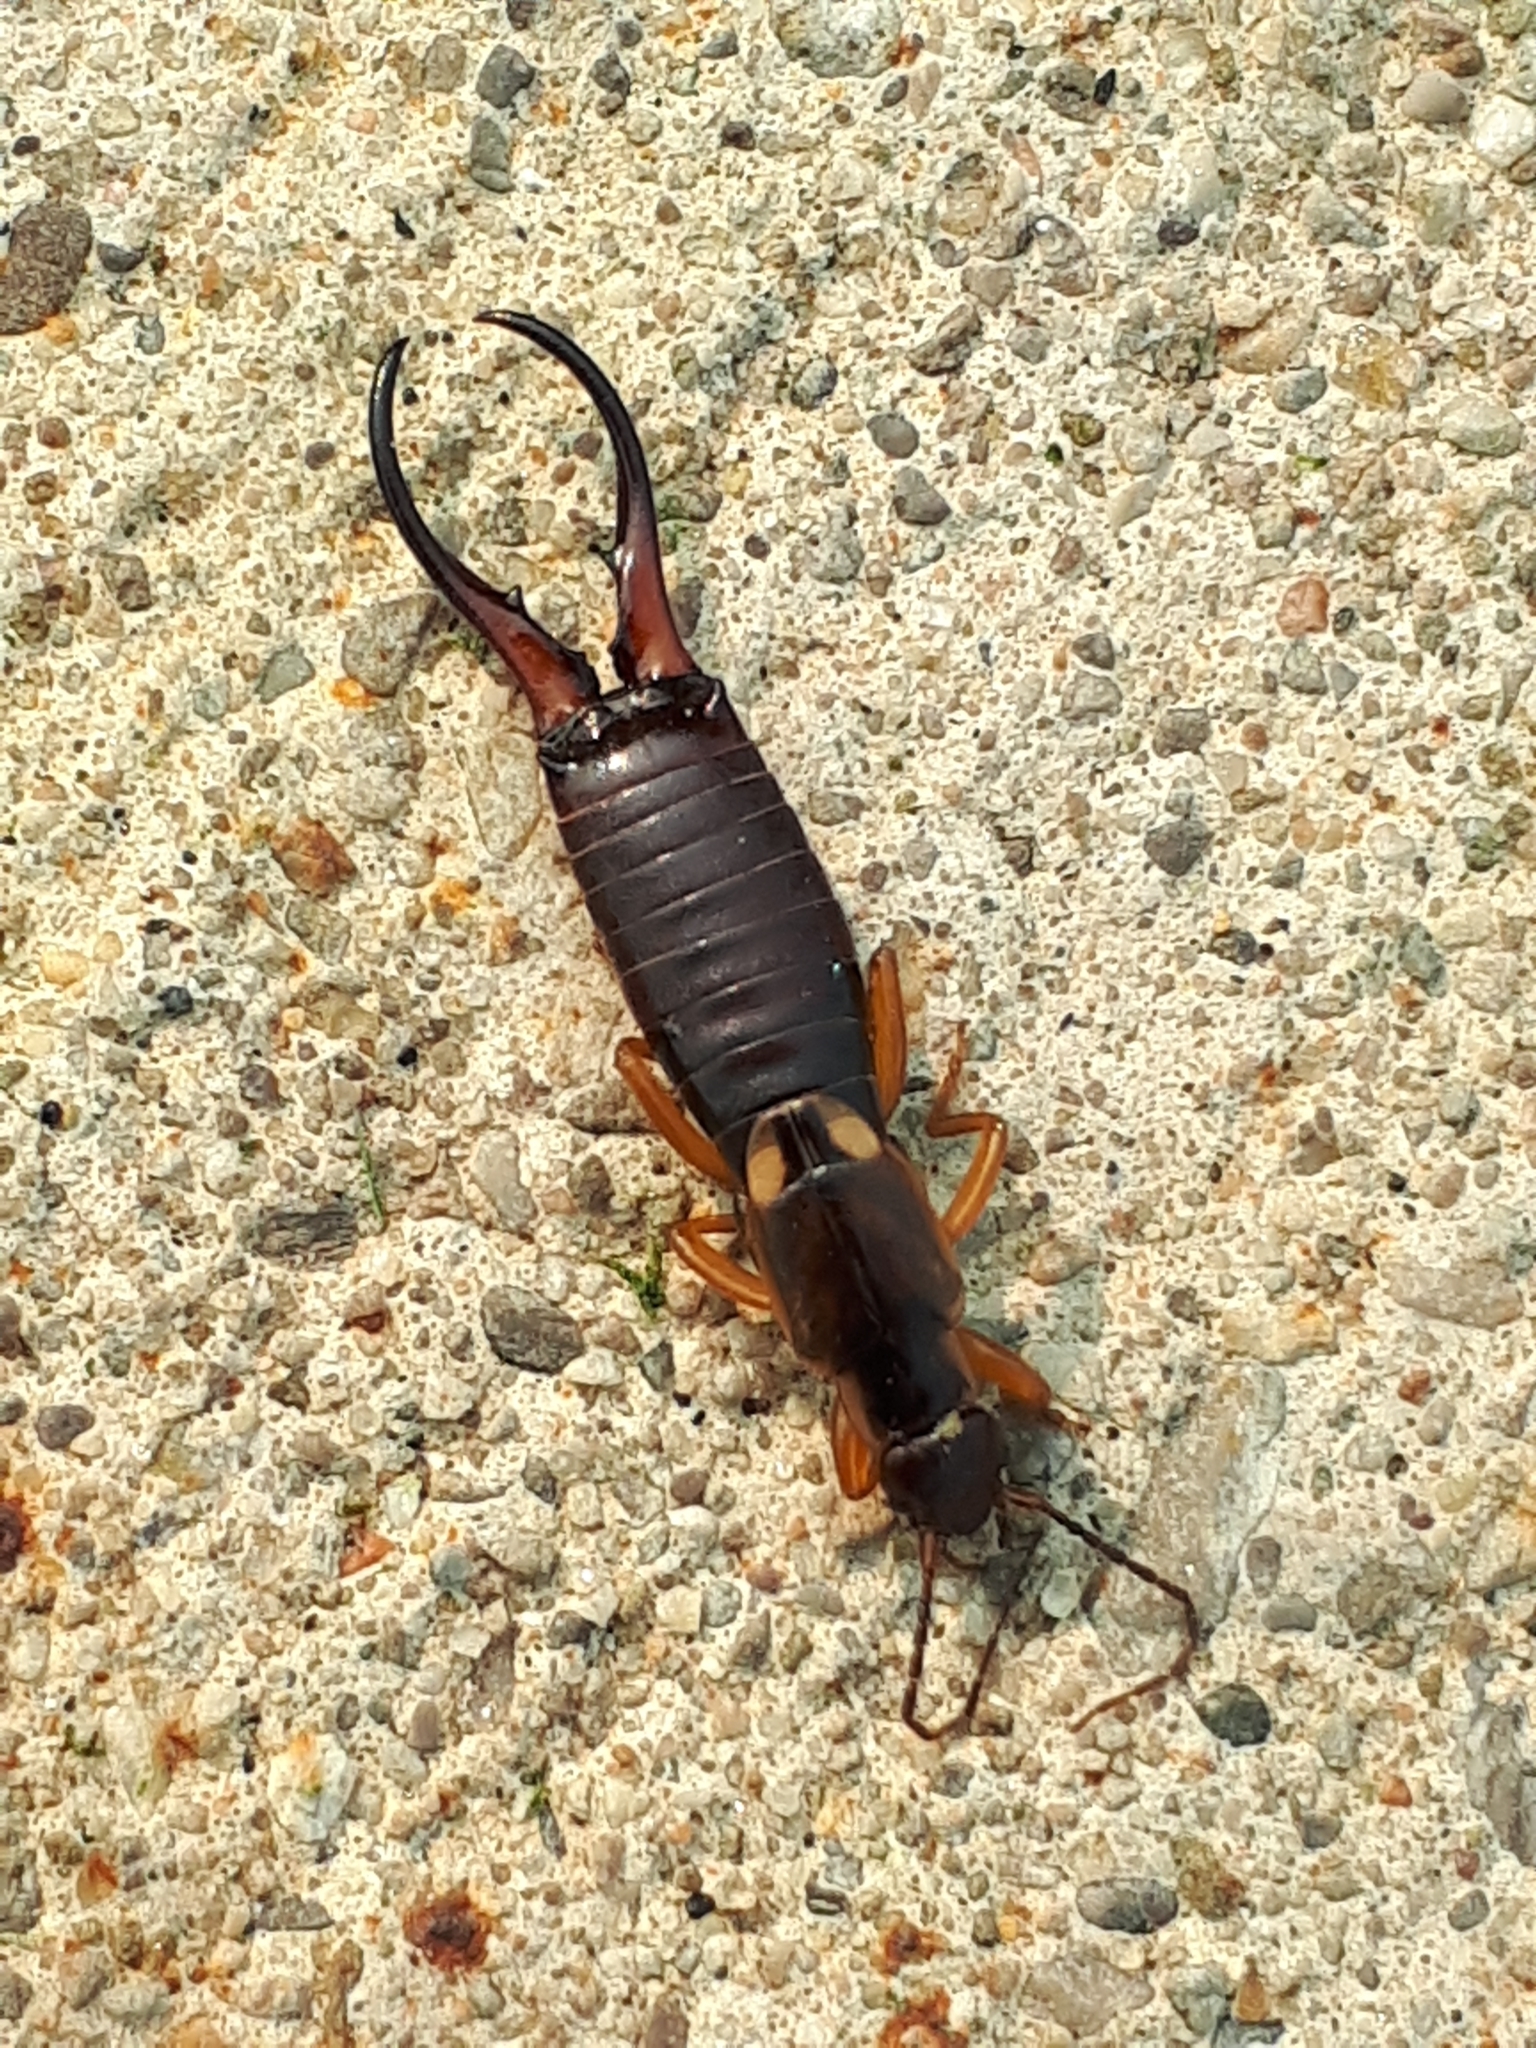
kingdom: Animalia
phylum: Arthropoda
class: Insecta
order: Dermaptera
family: Forficulidae
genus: Forficula
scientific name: Forficula
